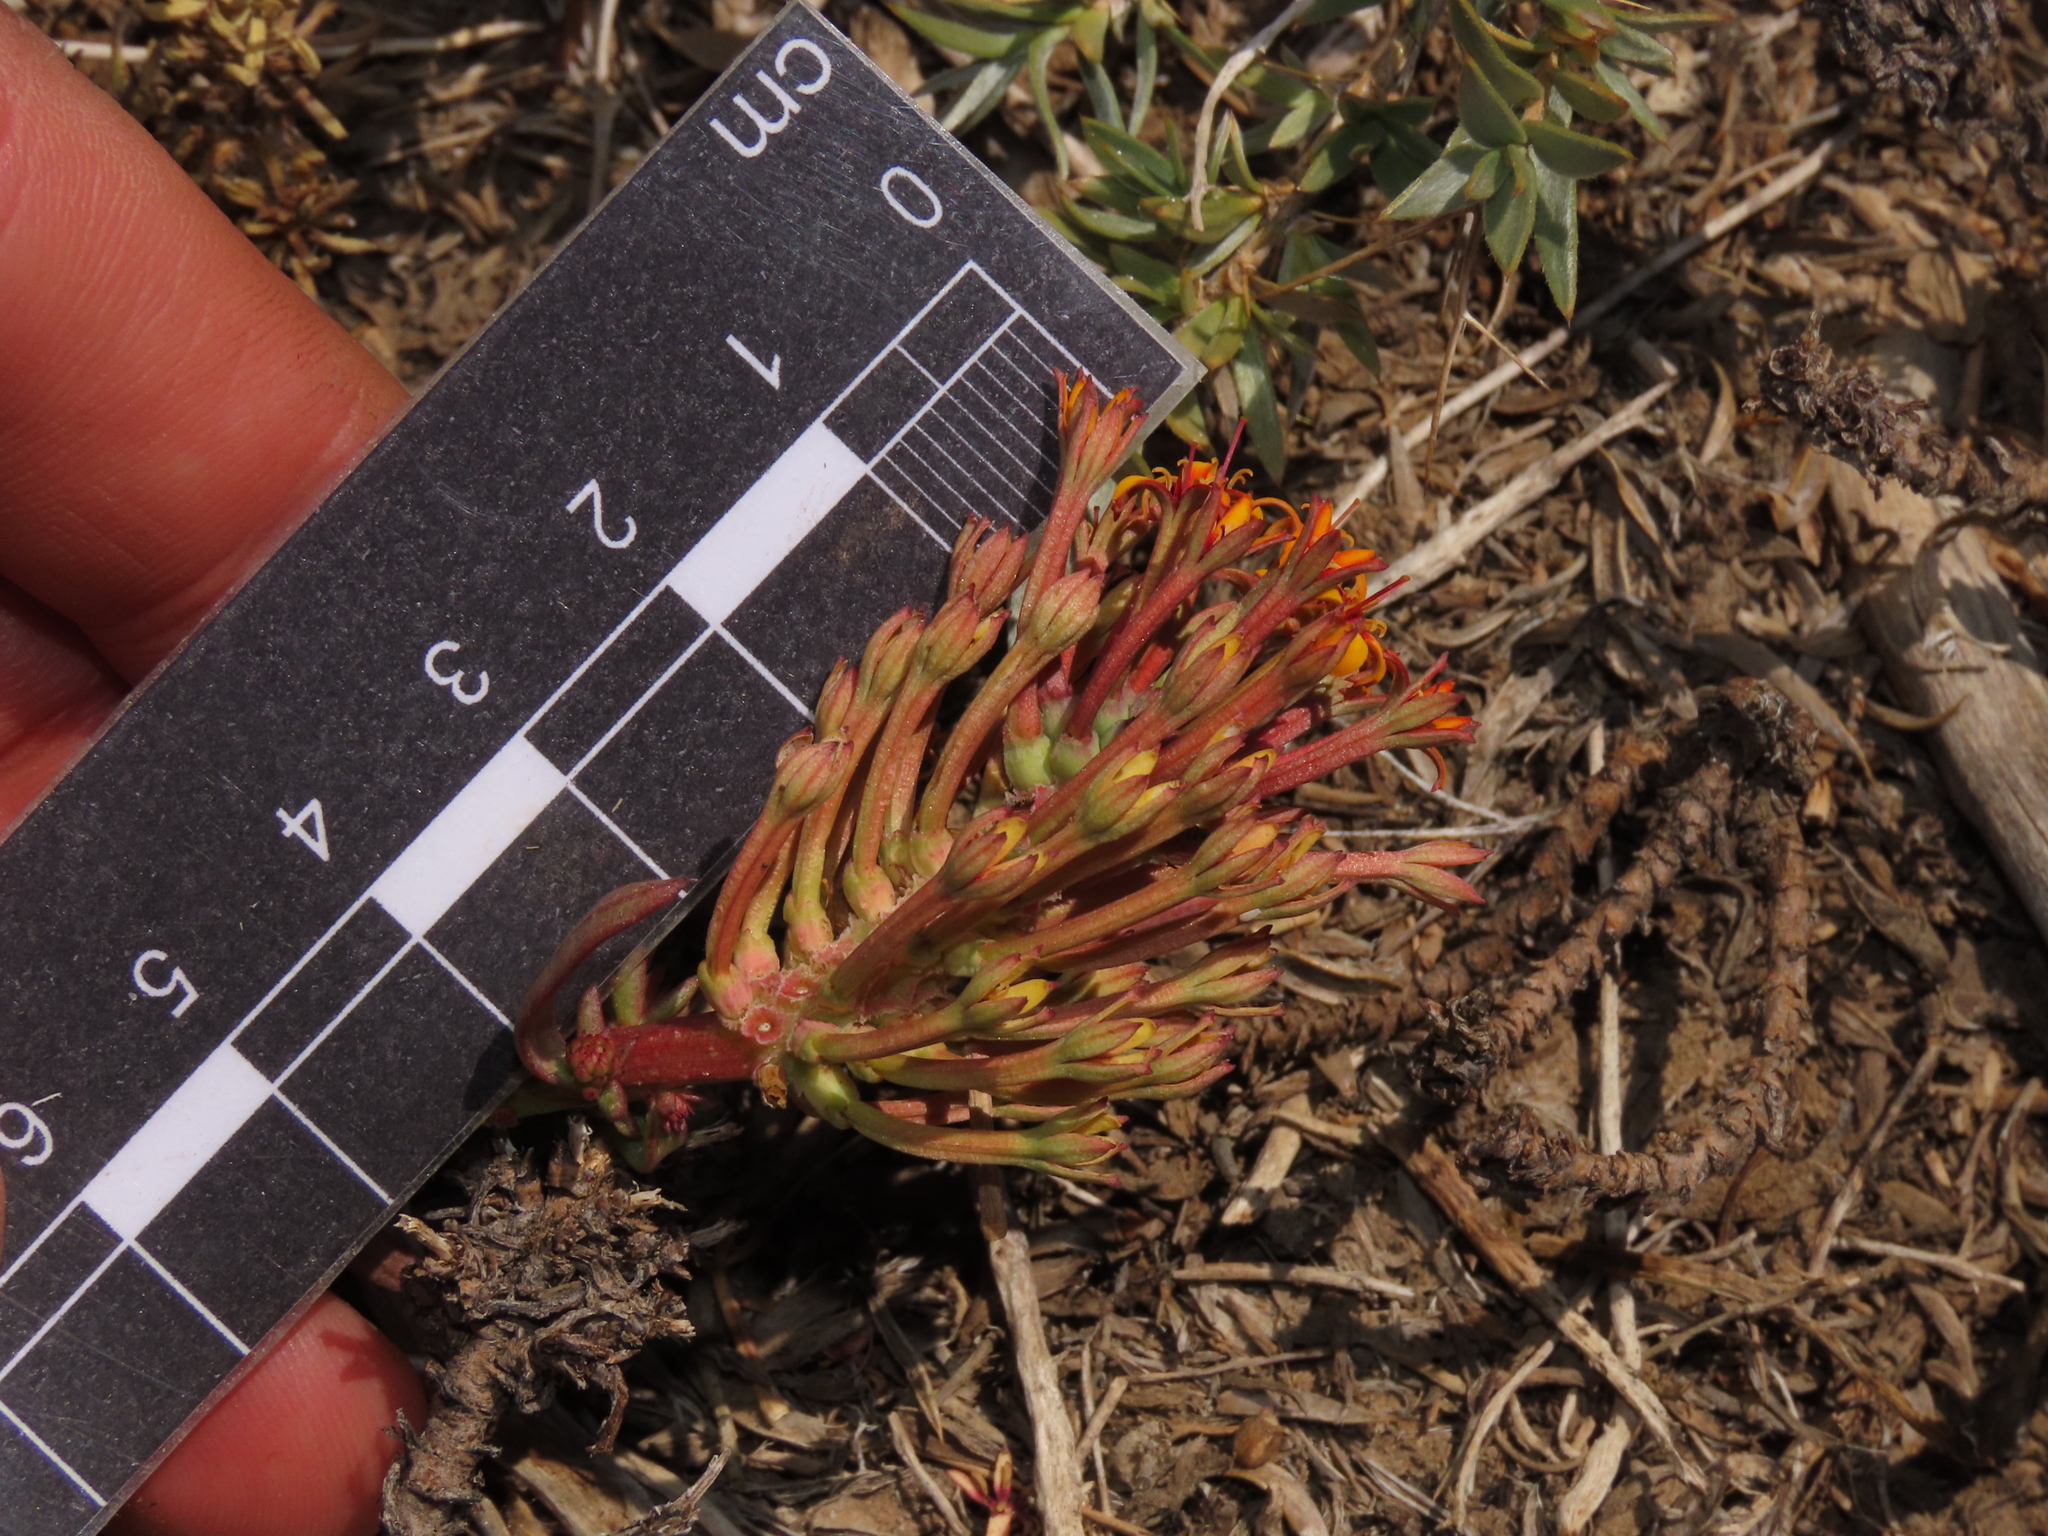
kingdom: Plantae
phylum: Tracheophyta
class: Magnoliopsida
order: Santalales
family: Schoepfiaceae
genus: Quinchamalium
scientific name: Quinchamalium chilense
